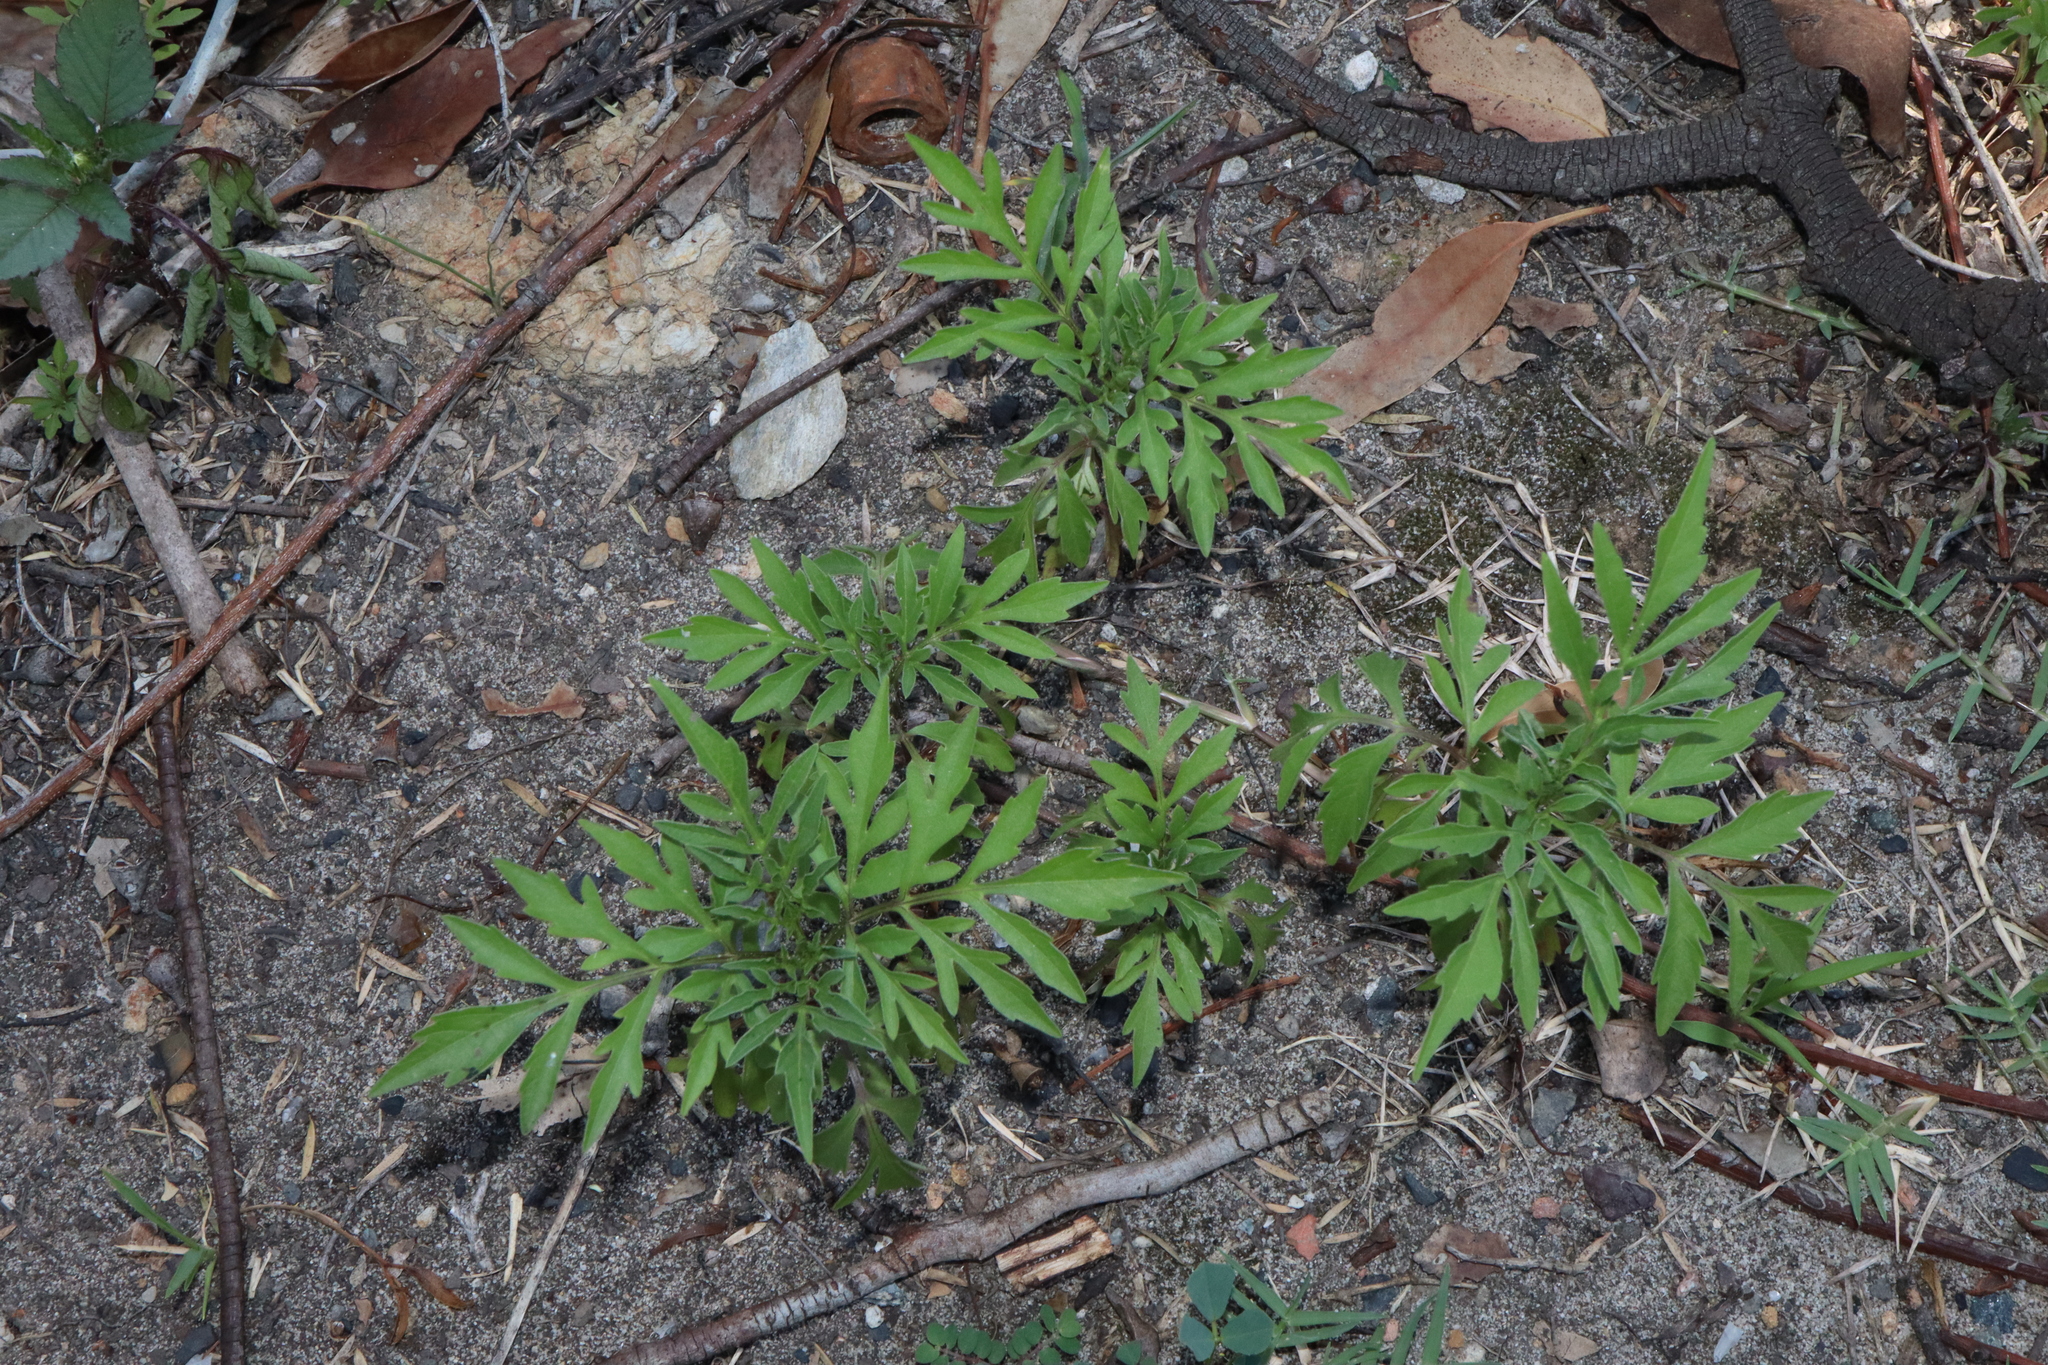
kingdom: Plantae
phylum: Tracheophyta
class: Magnoliopsida
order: Asterales
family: Asteraceae
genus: Bidens
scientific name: Bidens subalternans
